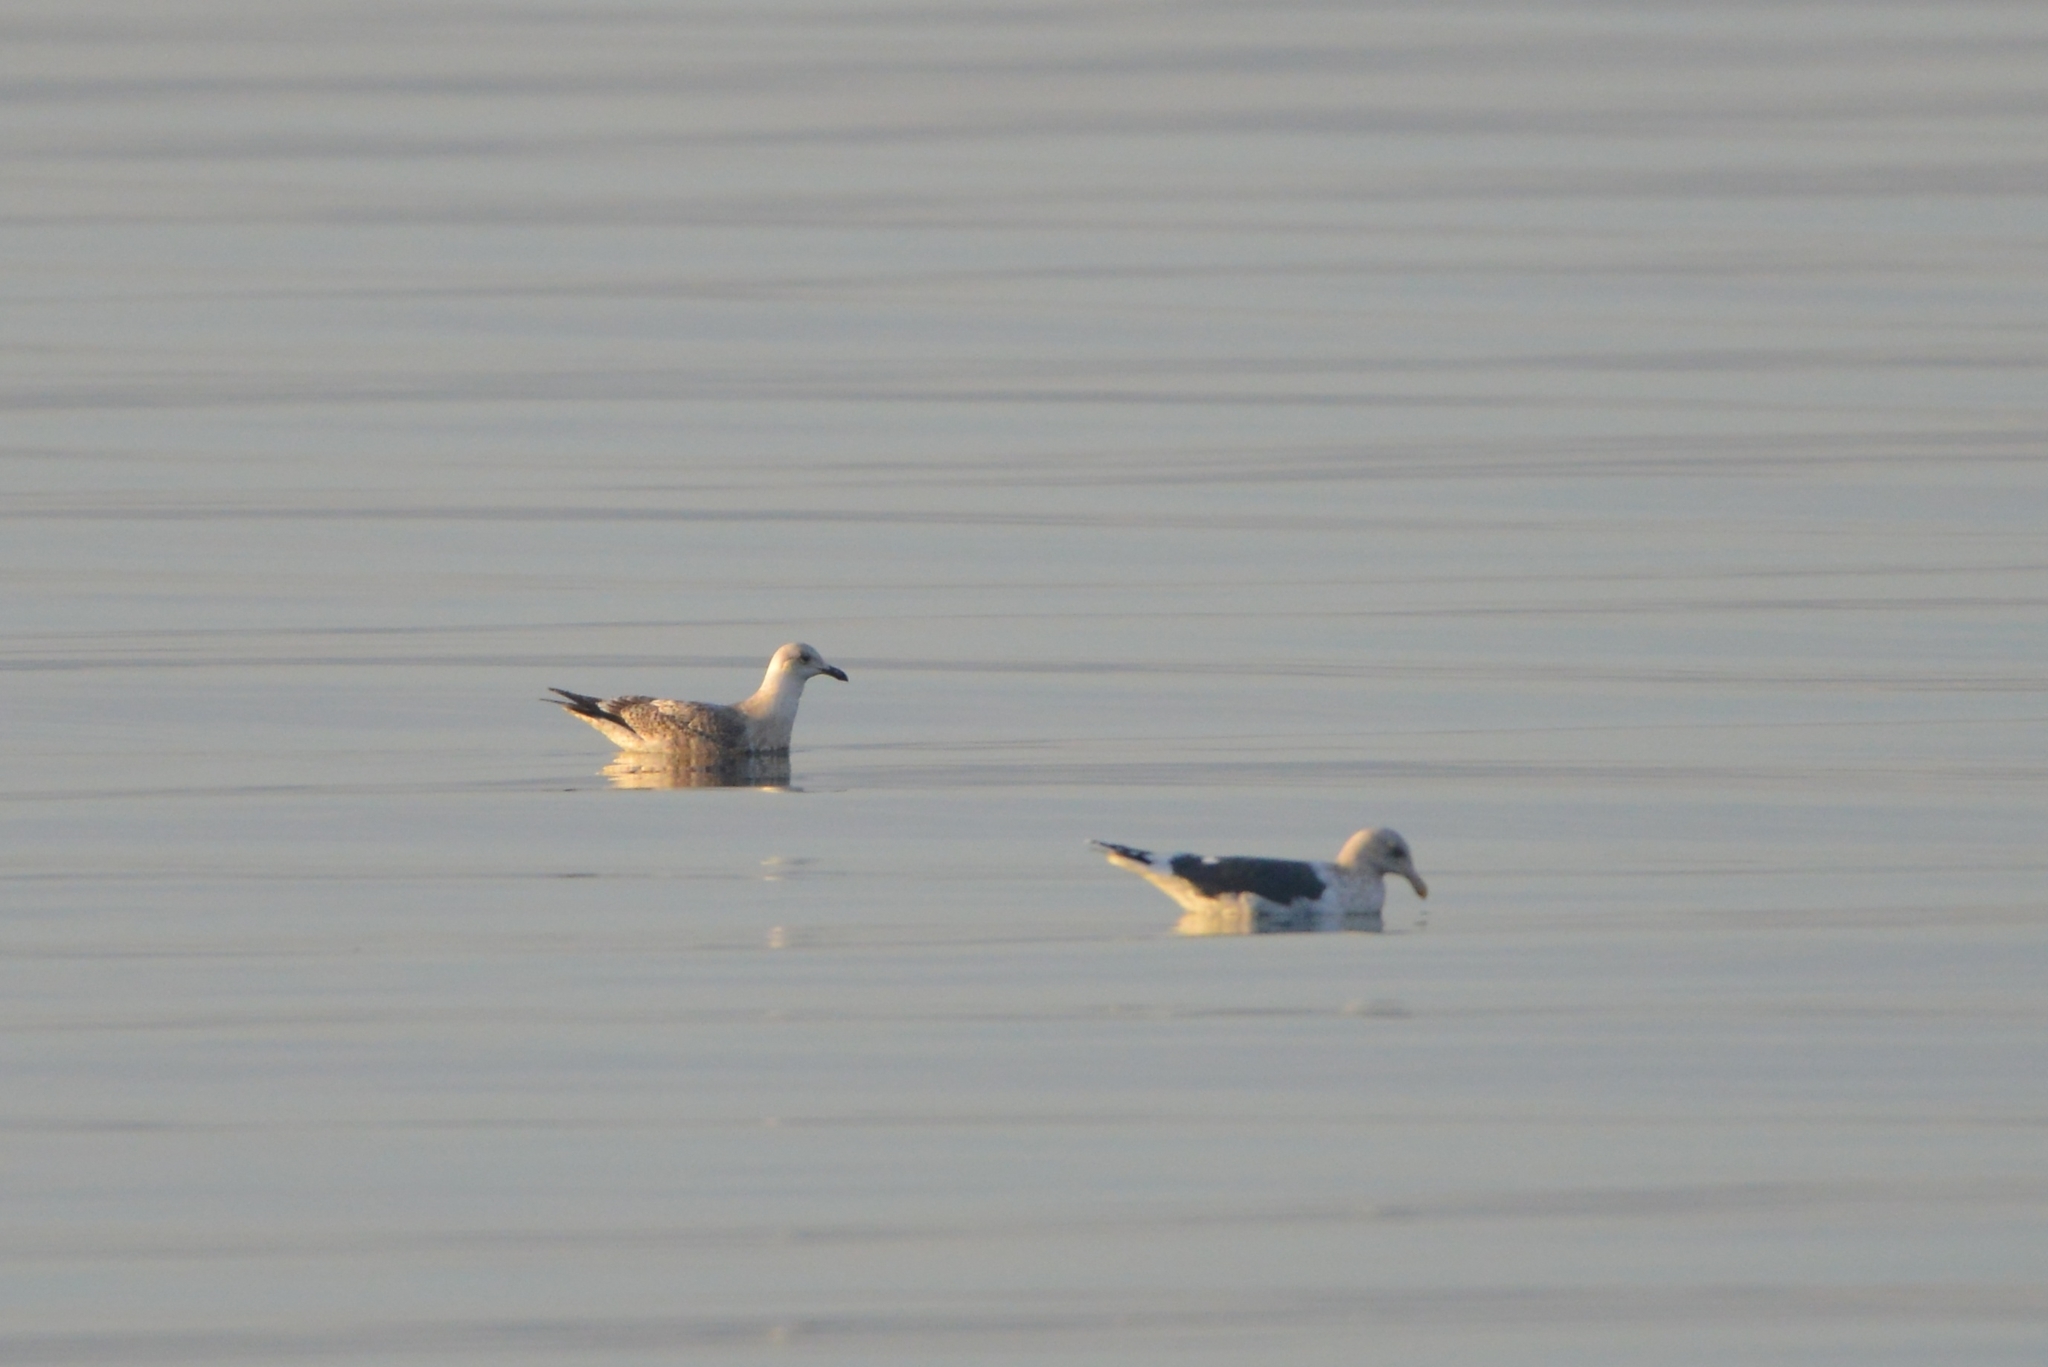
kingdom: Animalia
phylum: Chordata
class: Aves
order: Charadriiformes
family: Laridae
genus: Larus
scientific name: Larus schistisagus
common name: Slaty-backed gull
